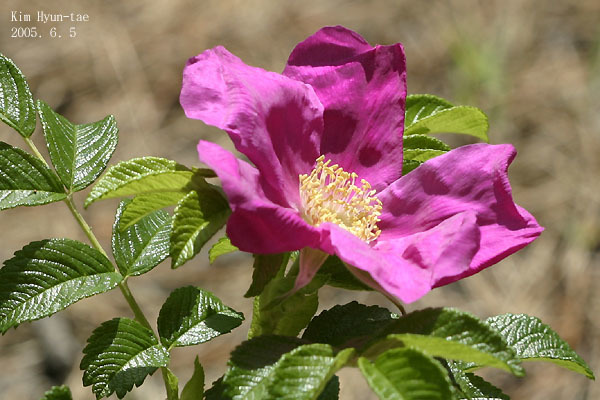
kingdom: Plantae
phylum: Tracheophyta
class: Magnoliopsida
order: Rosales
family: Rosaceae
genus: Rosa
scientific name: Rosa rugosa
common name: Japanese rose
